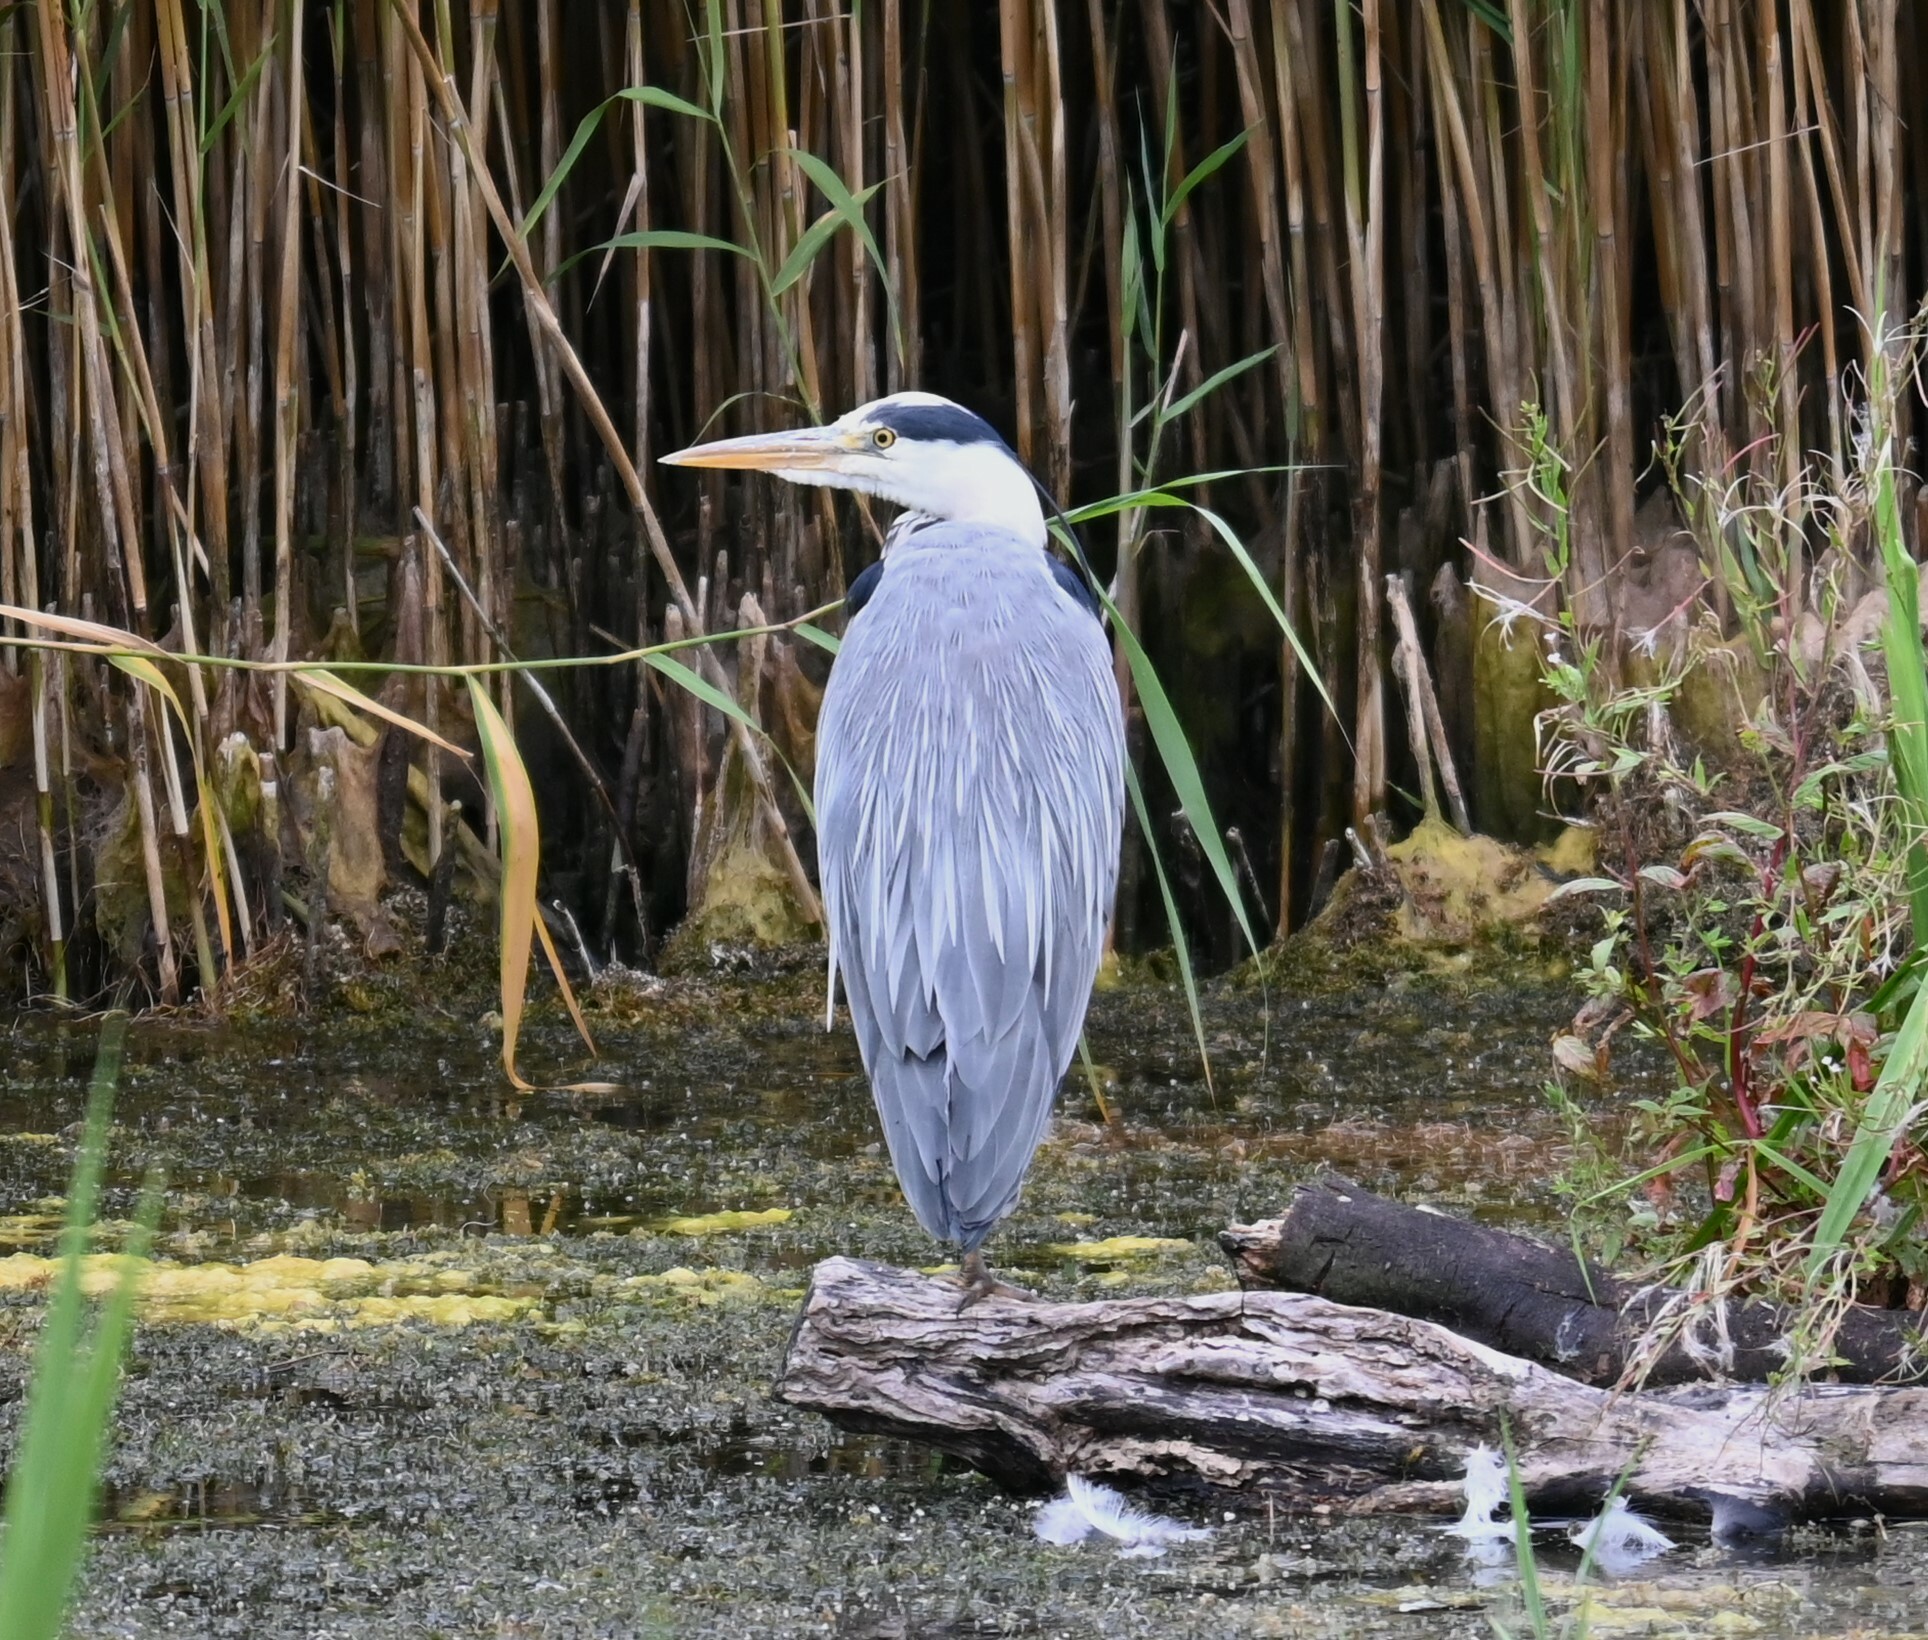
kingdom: Animalia
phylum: Chordata
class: Aves
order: Pelecaniformes
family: Ardeidae
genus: Ardea
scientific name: Ardea cinerea
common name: Grey heron
